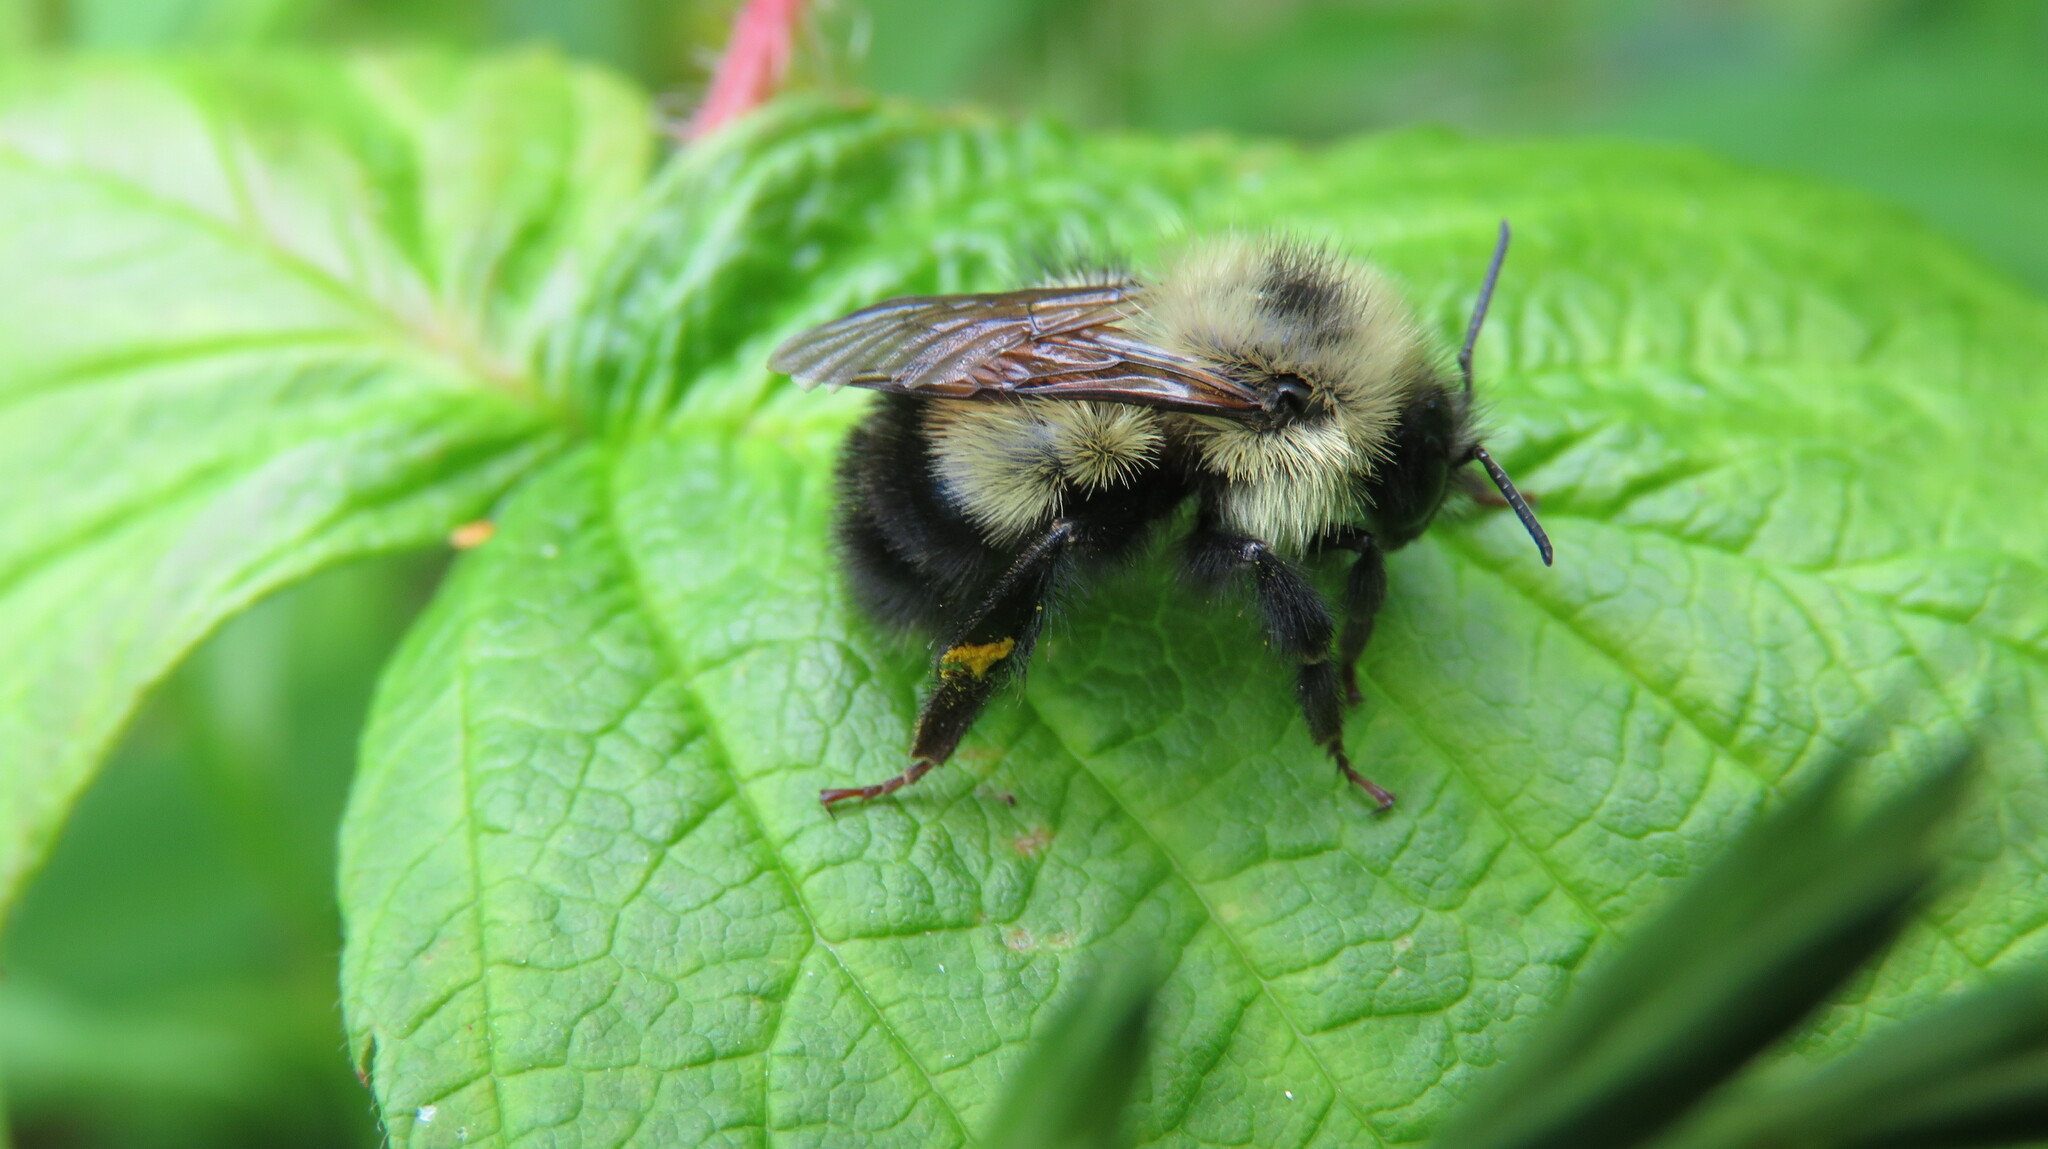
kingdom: Animalia
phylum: Arthropoda
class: Insecta
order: Hymenoptera
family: Apidae
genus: Pyrobombus
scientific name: Pyrobombus
